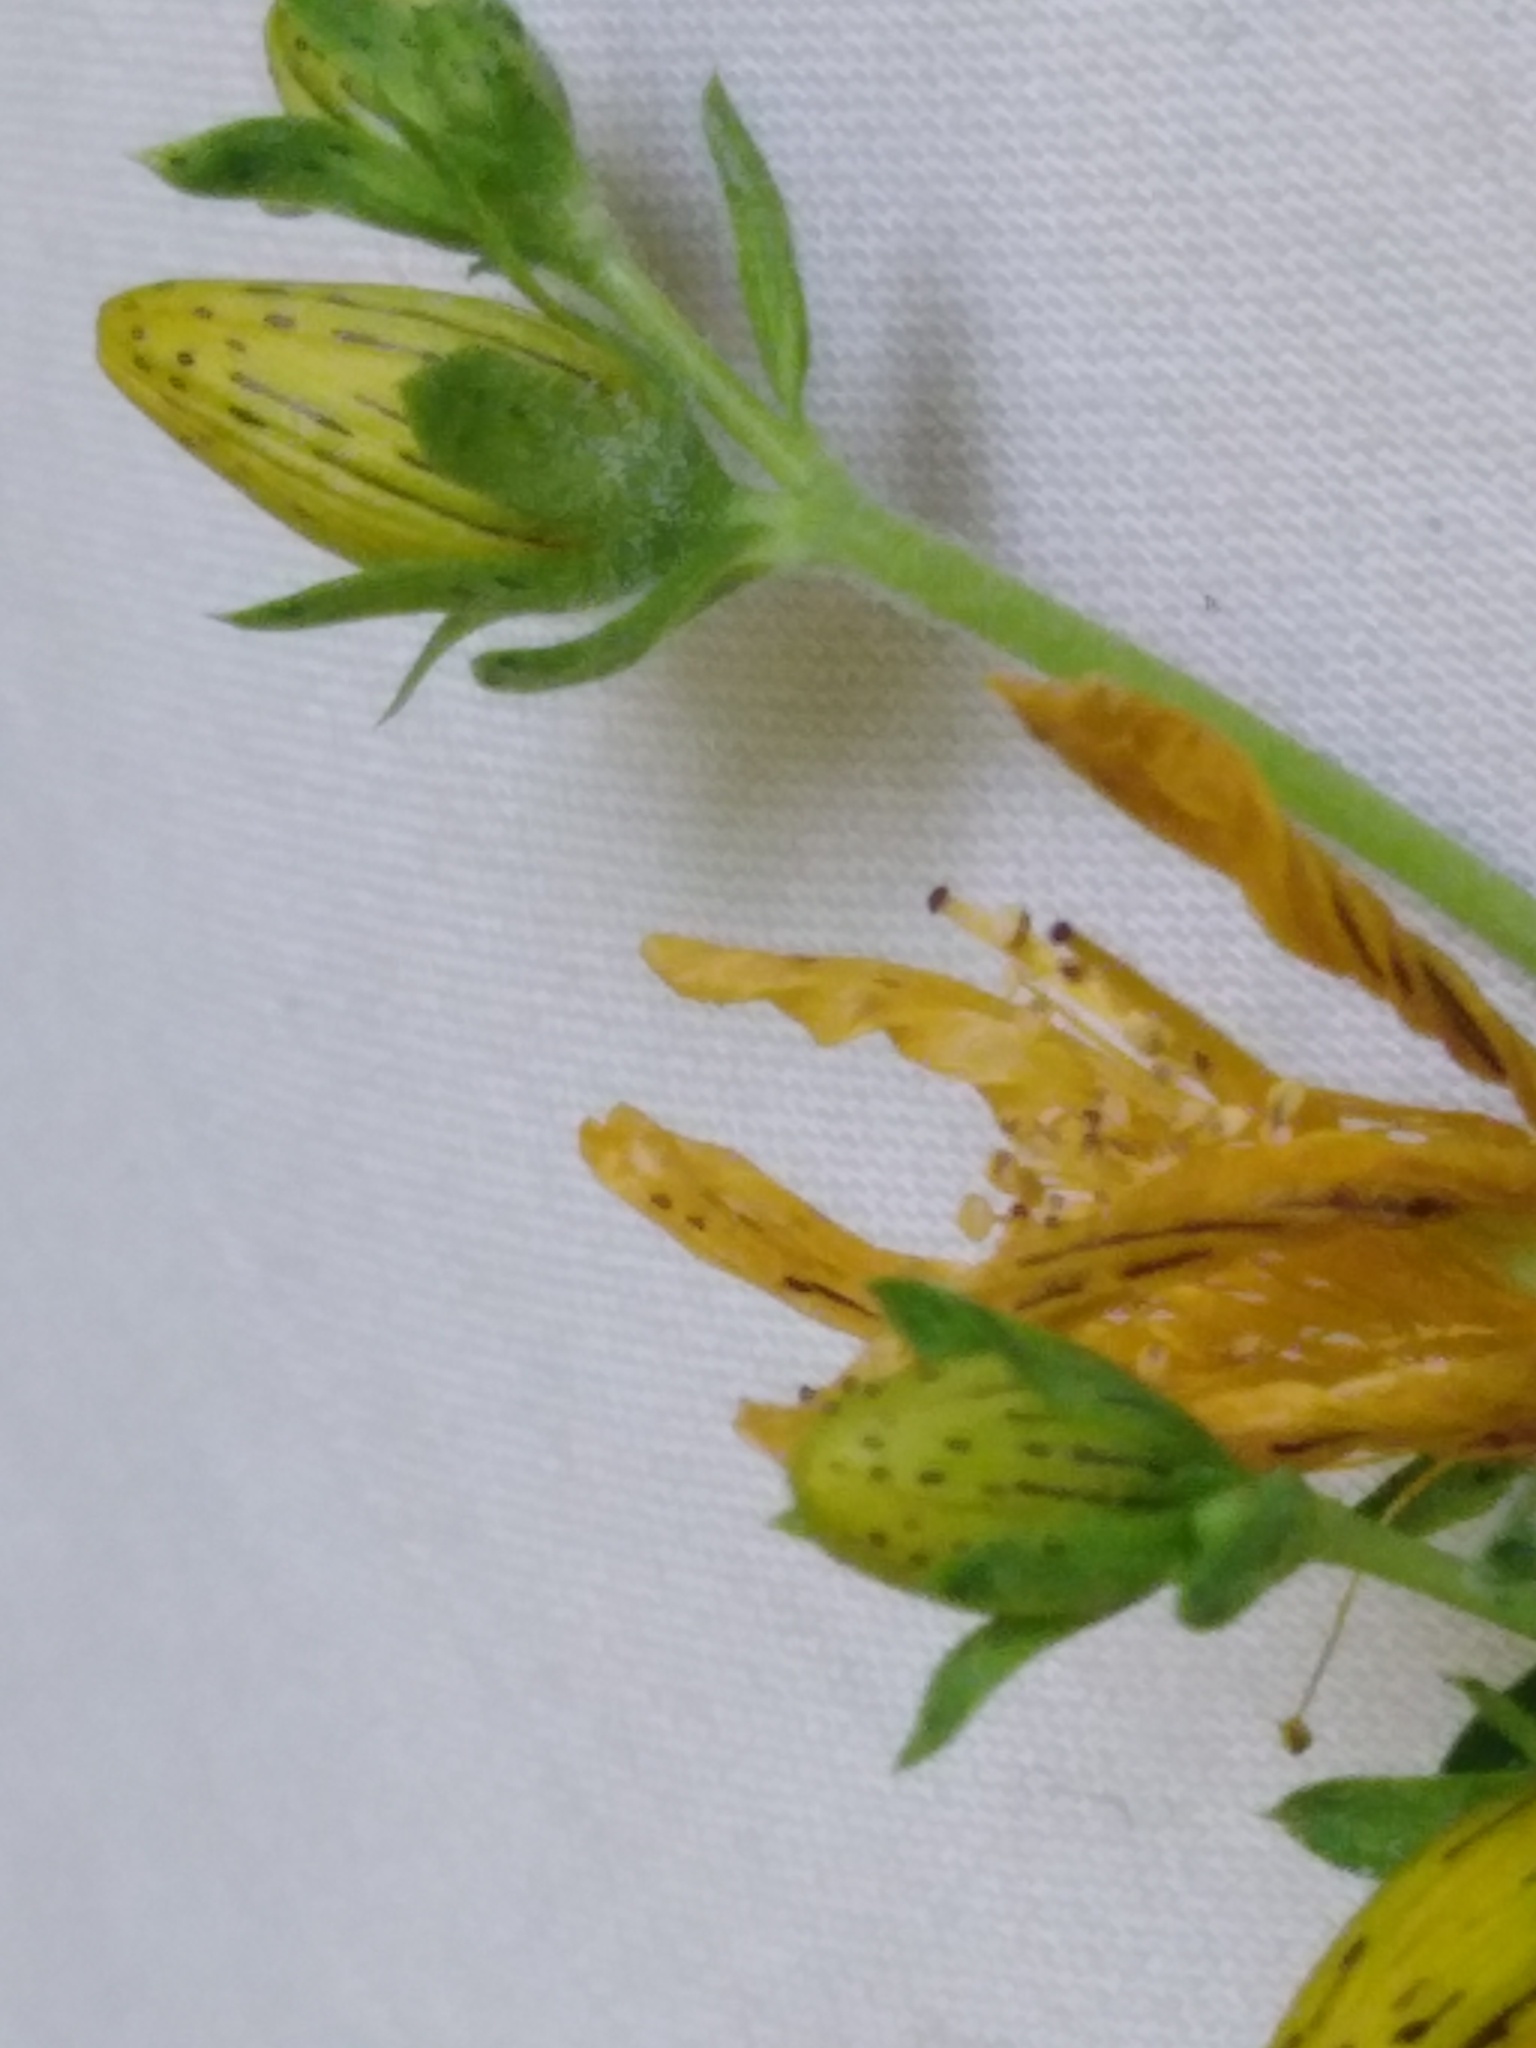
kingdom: Plantae
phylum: Tracheophyta
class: Magnoliopsida
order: Malpighiales
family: Hypericaceae
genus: Hypericum
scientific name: Hypericum perforatum
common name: Common st. johnswort
